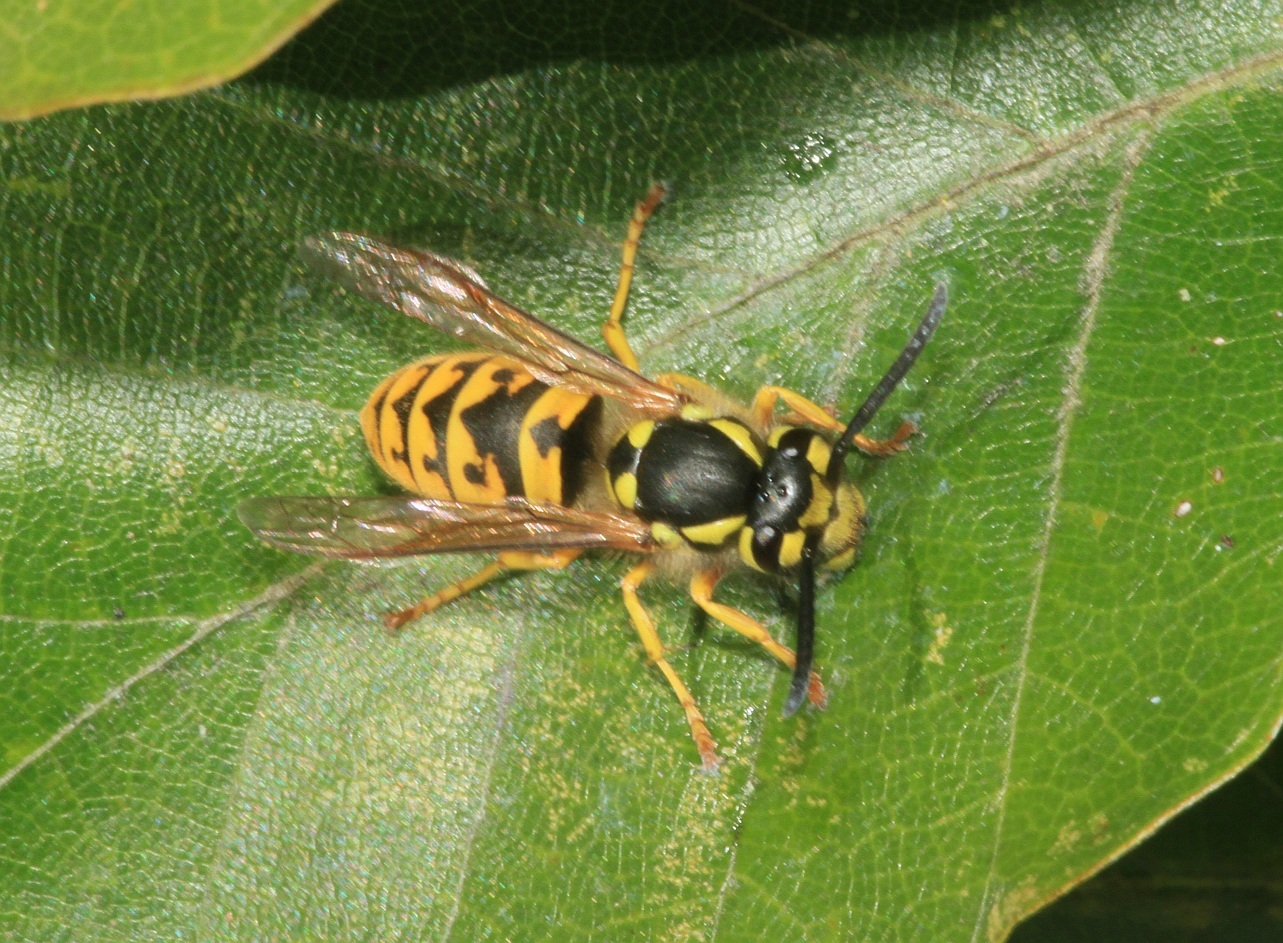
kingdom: Animalia
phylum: Arthropoda
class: Insecta
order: Hymenoptera
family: Vespidae
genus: Vespula
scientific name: Vespula germanica
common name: German wasp
